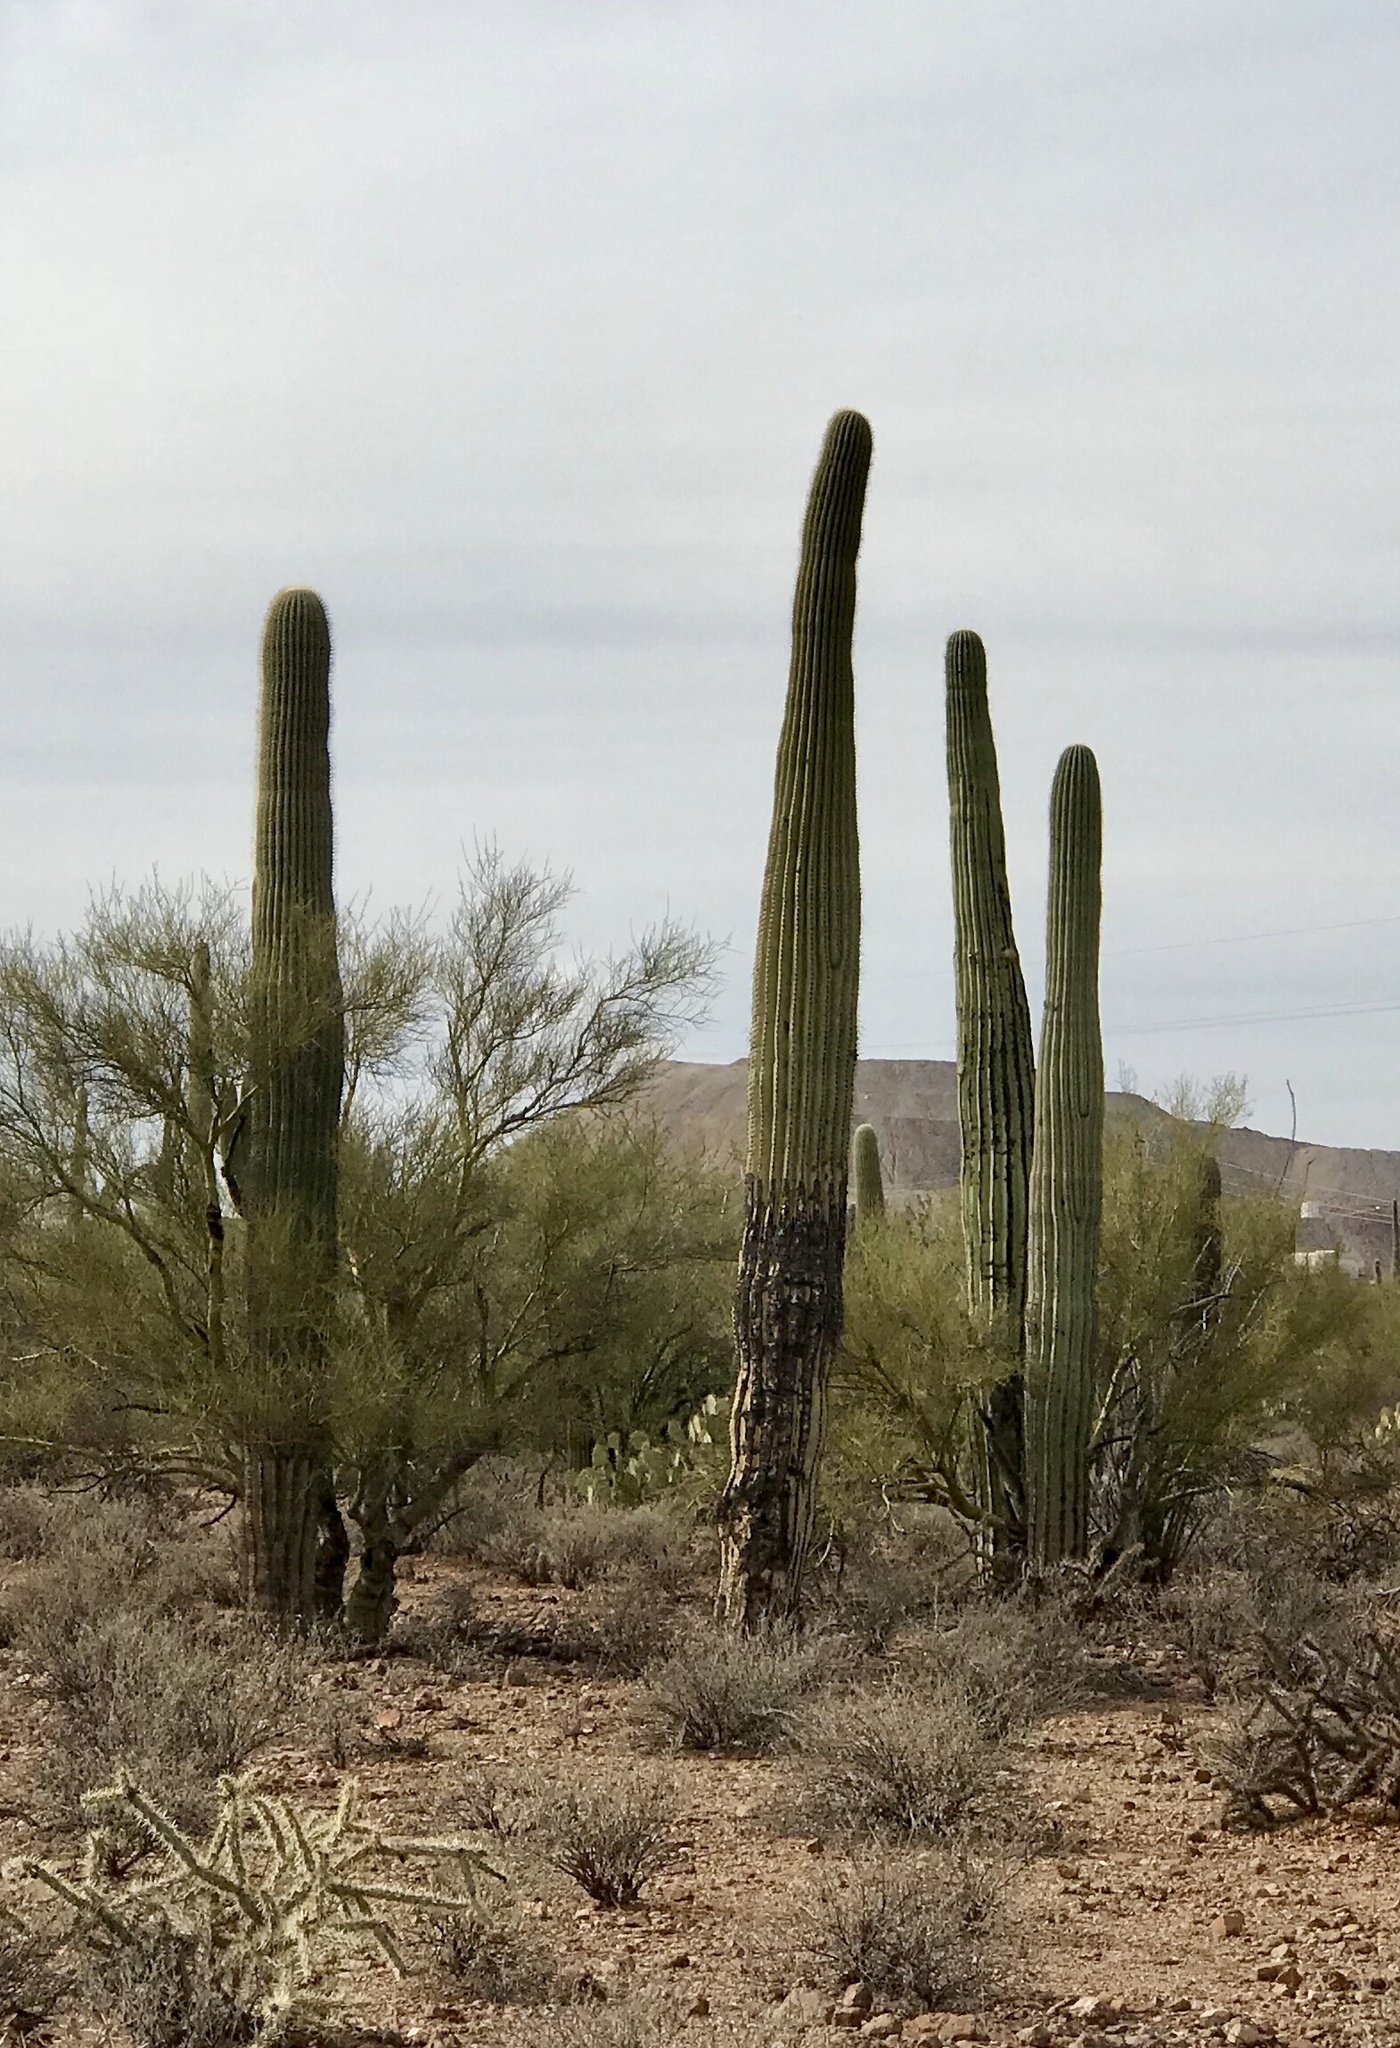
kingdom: Plantae
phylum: Tracheophyta
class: Magnoliopsida
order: Caryophyllales
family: Cactaceae
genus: Carnegiea
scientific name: Carnegiea gigantea
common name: Saguaro
